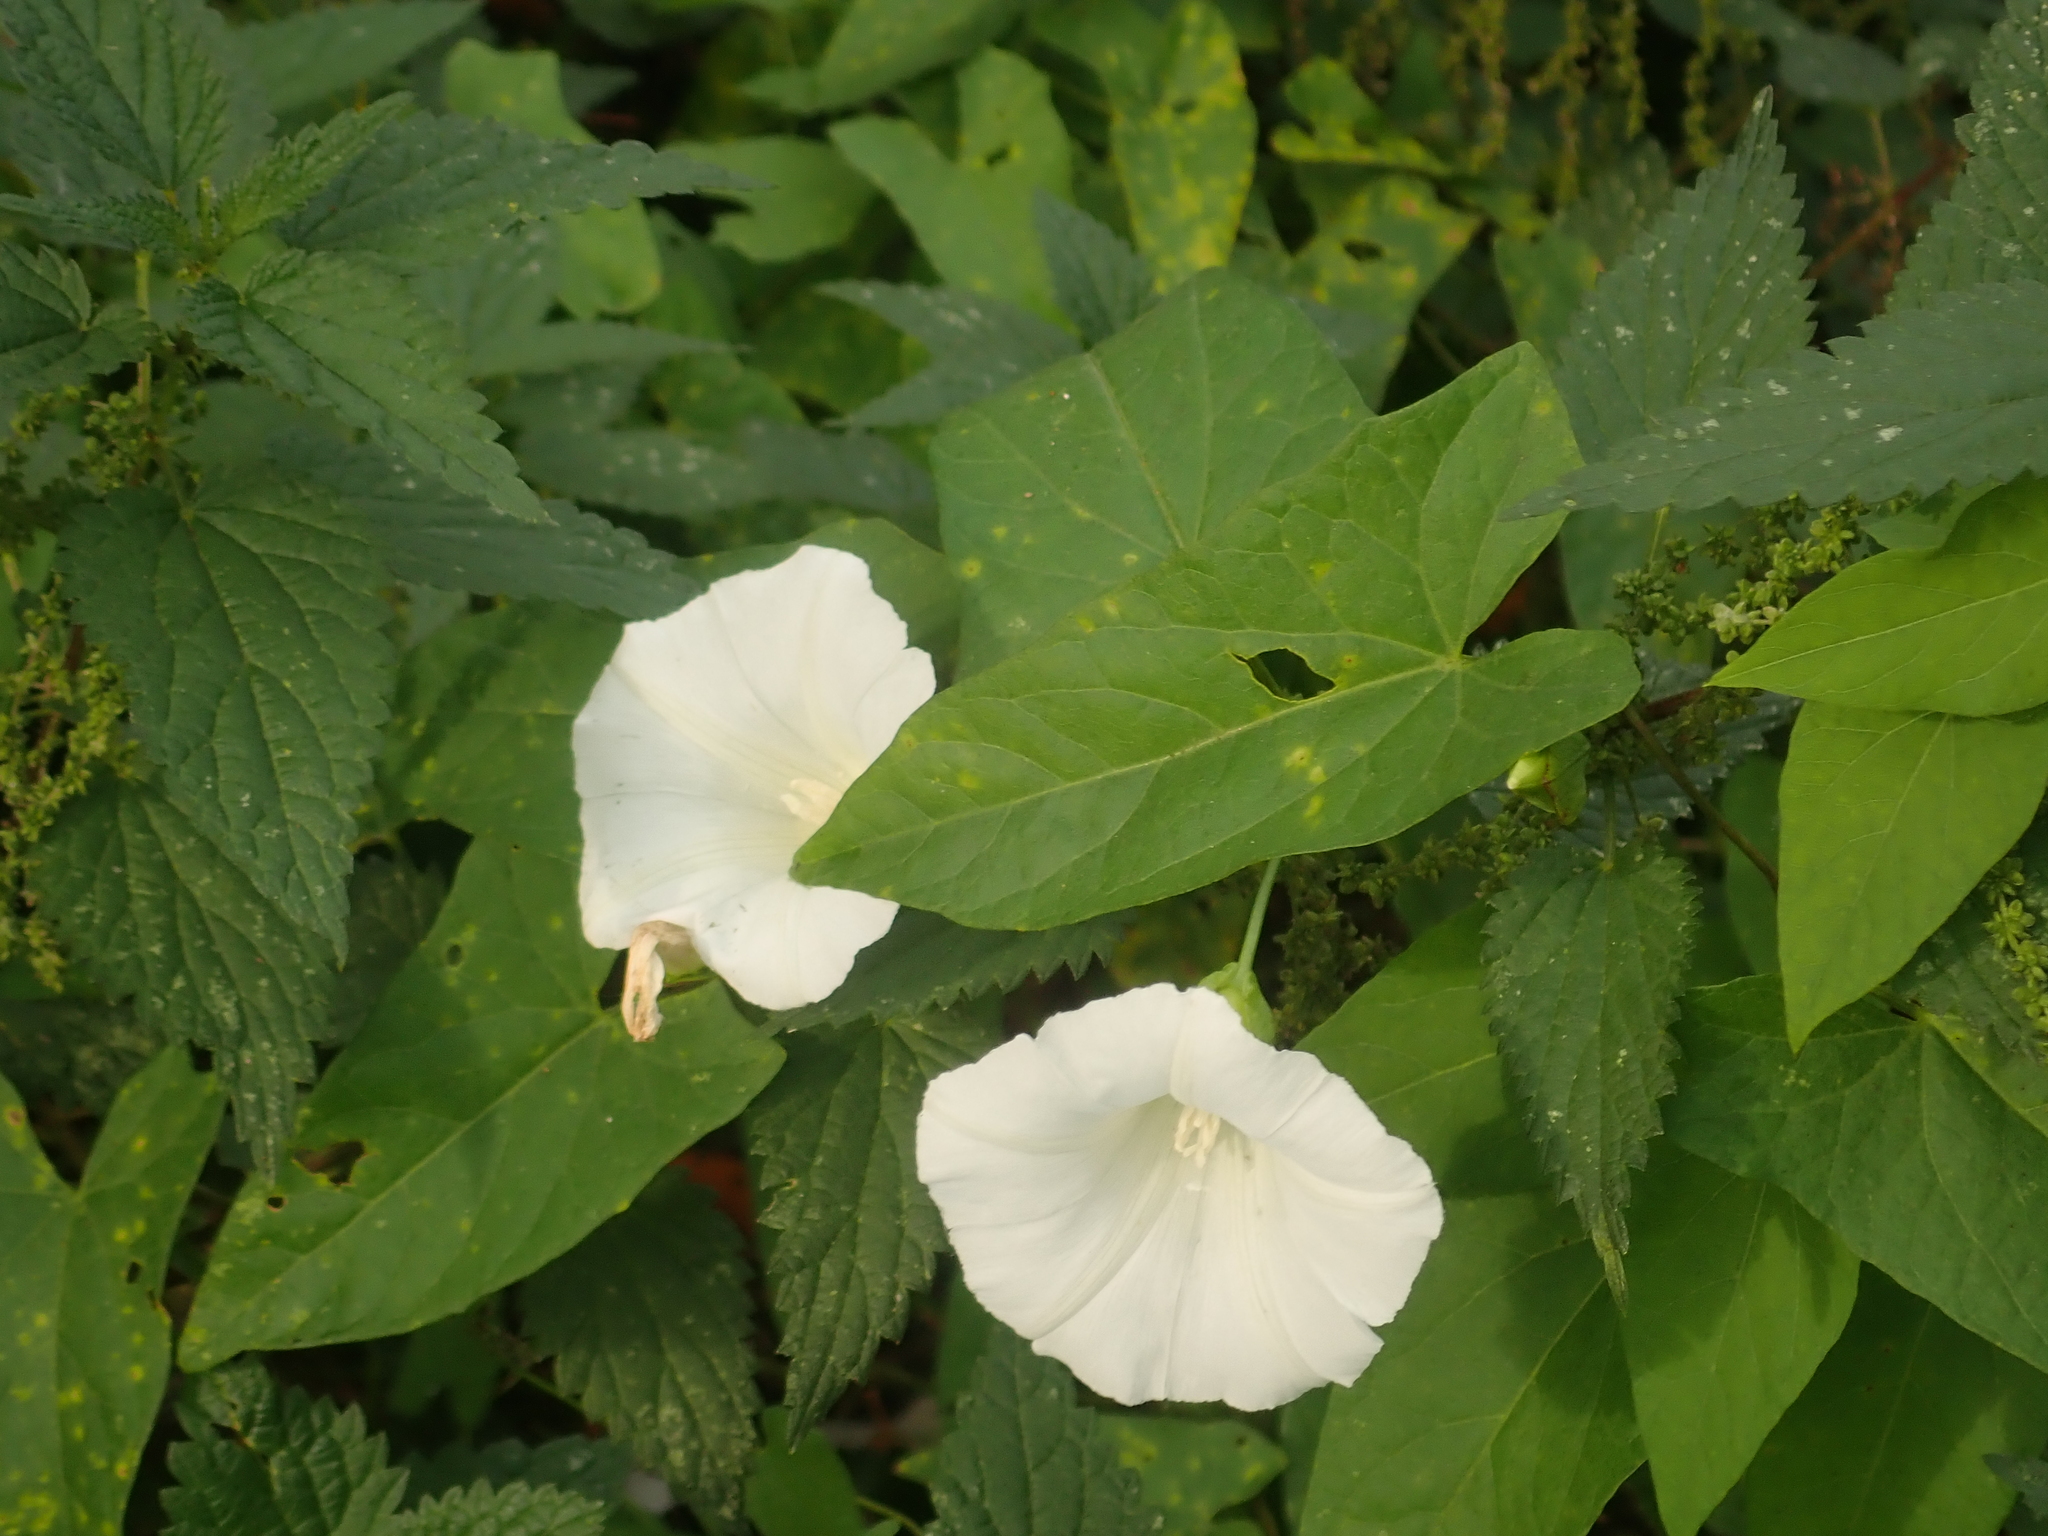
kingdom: Plantae
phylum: Tracheophyta
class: Magnoliopsida
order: Solanales
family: Convolvulaceae
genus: Calystegia
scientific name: Calystegia sepium
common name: Hedge bindweed
